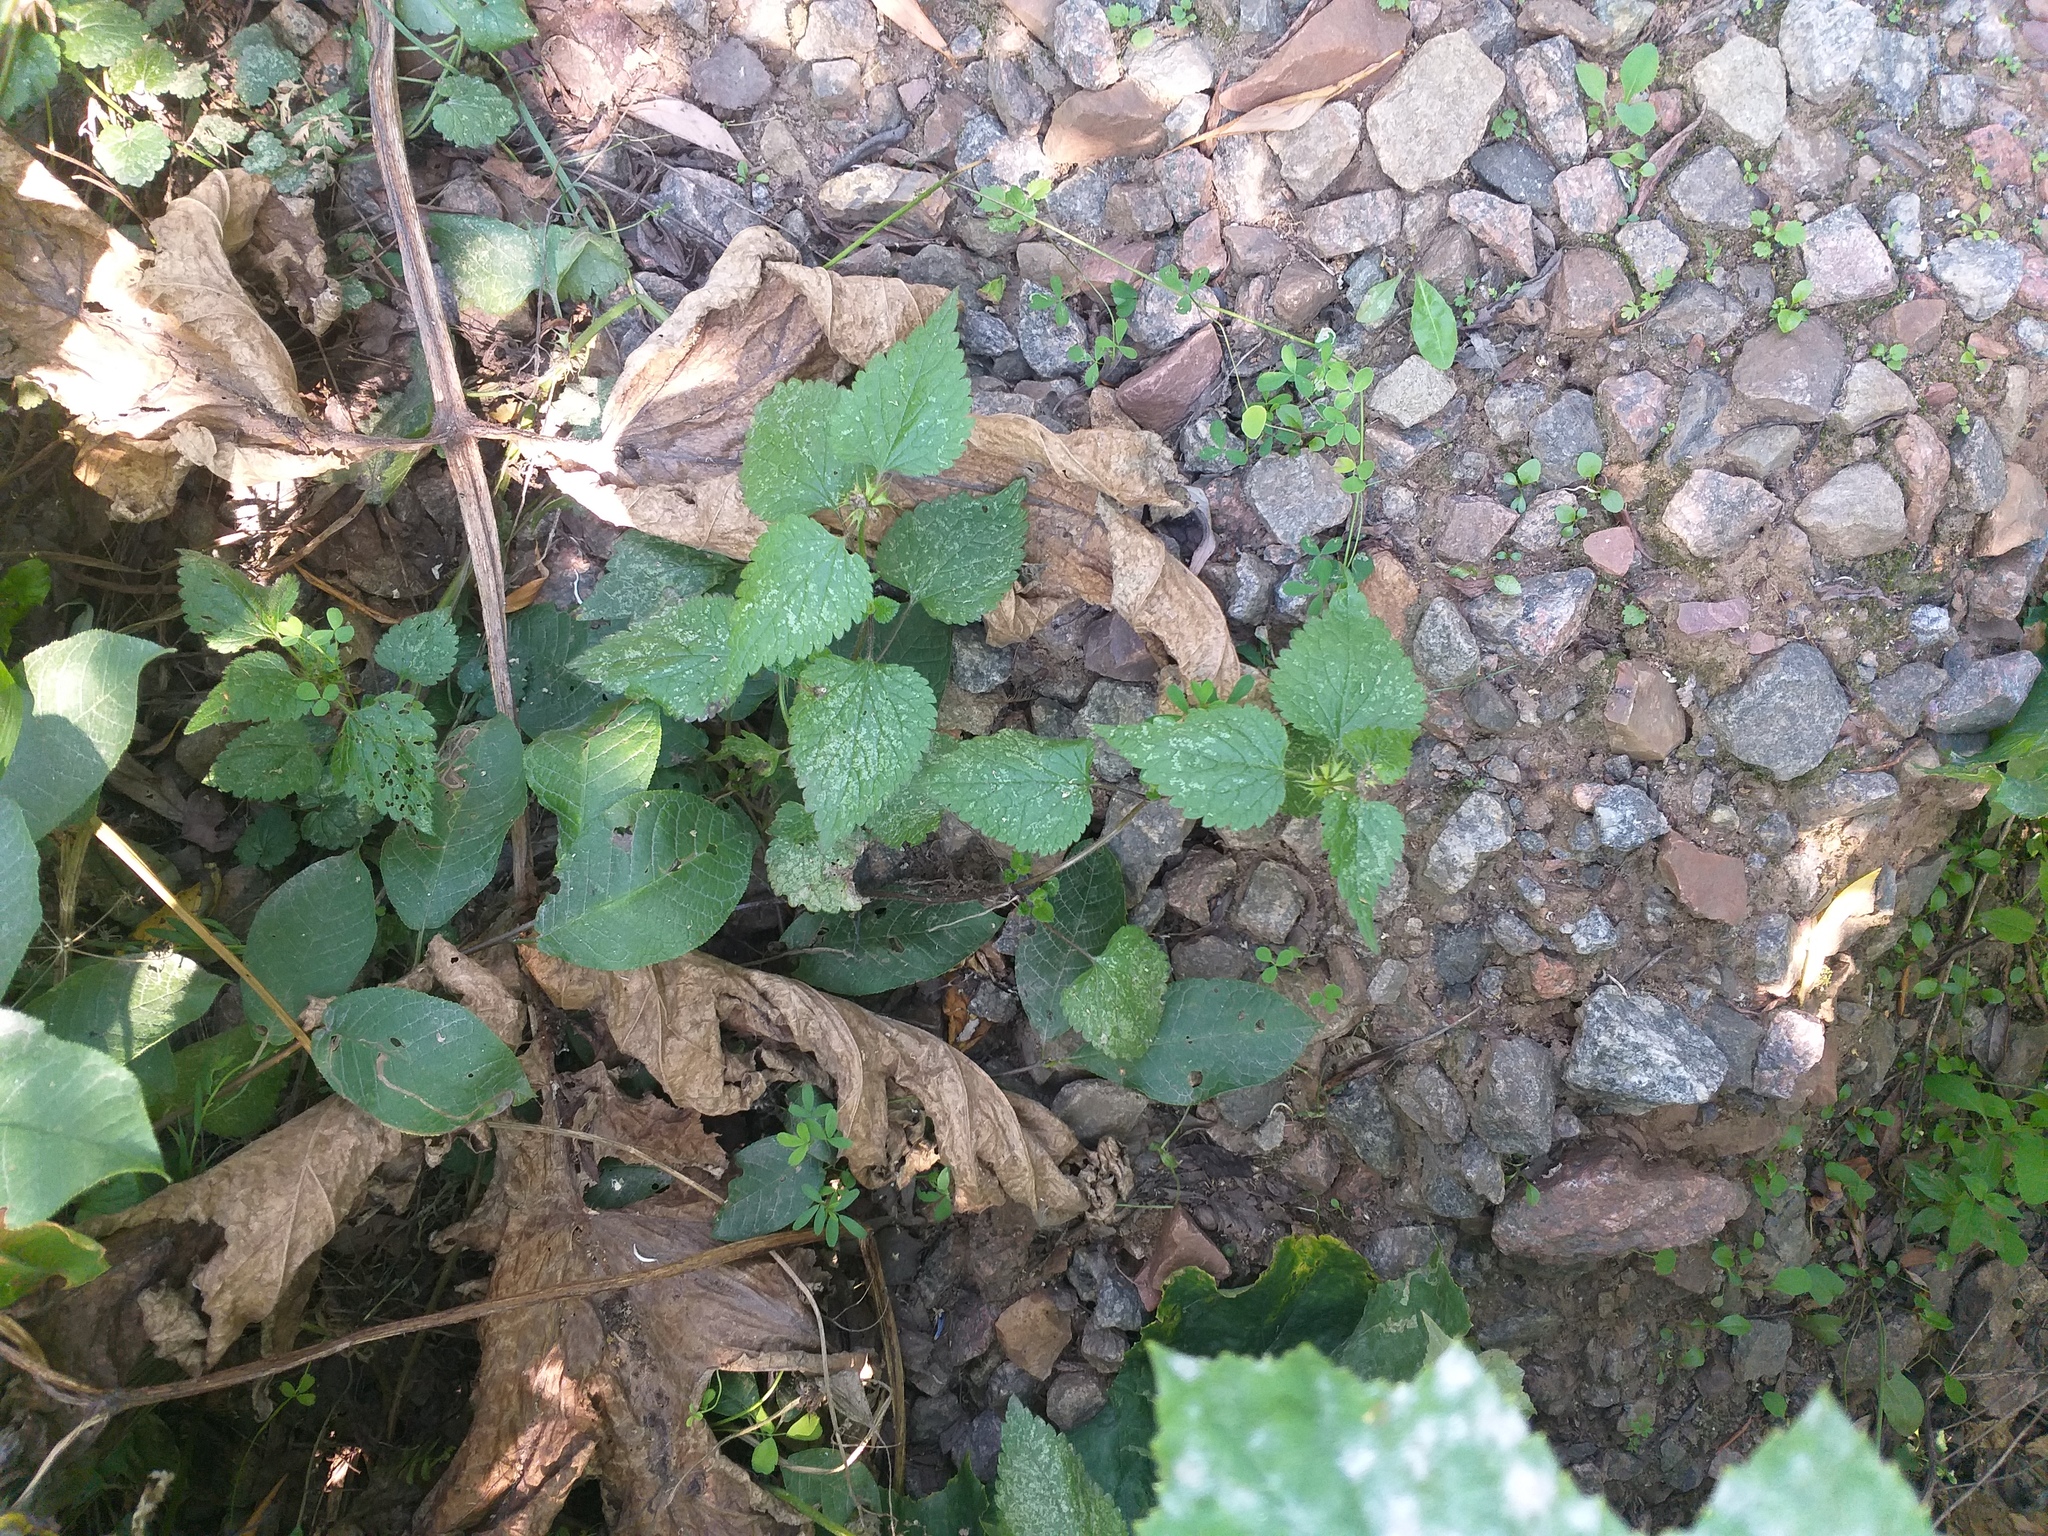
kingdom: Plantae
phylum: Tracheophyta
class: Magnoliopsida
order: Lamiales
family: Lamiaceae
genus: Lamium
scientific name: Lamium album
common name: White dead-nettle
